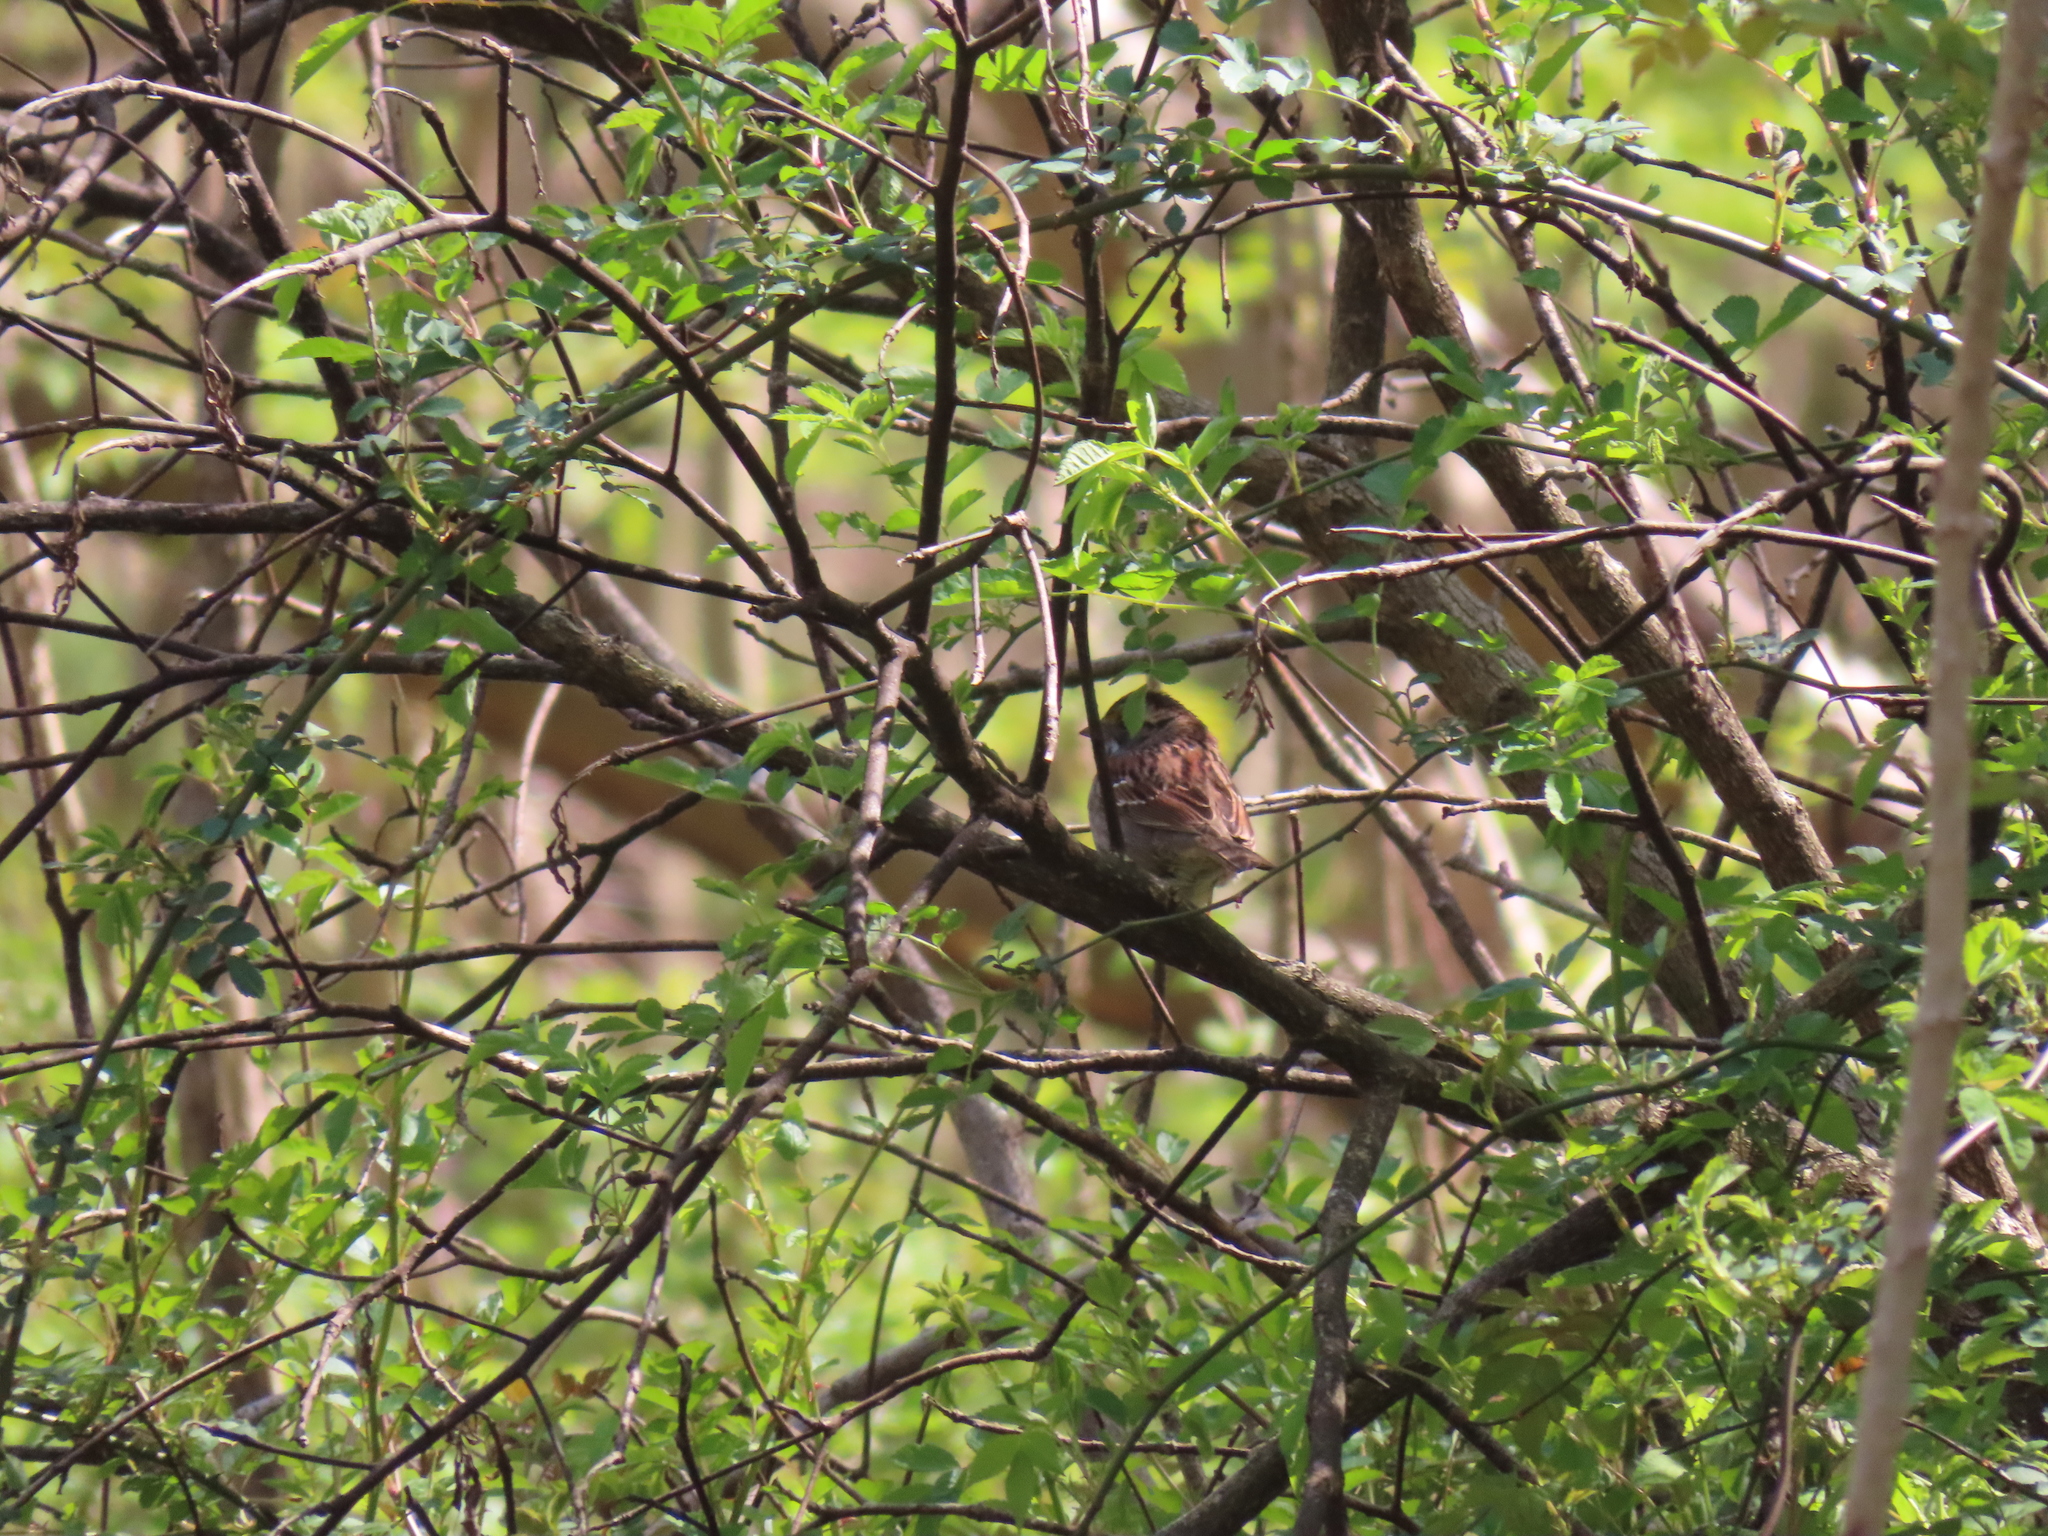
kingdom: Animalia
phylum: Chordata
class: Aves
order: Passeriformes
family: Passerellidae
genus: Zonotrichia
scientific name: Zonotrichia albicollis
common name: White-throated sparrow
